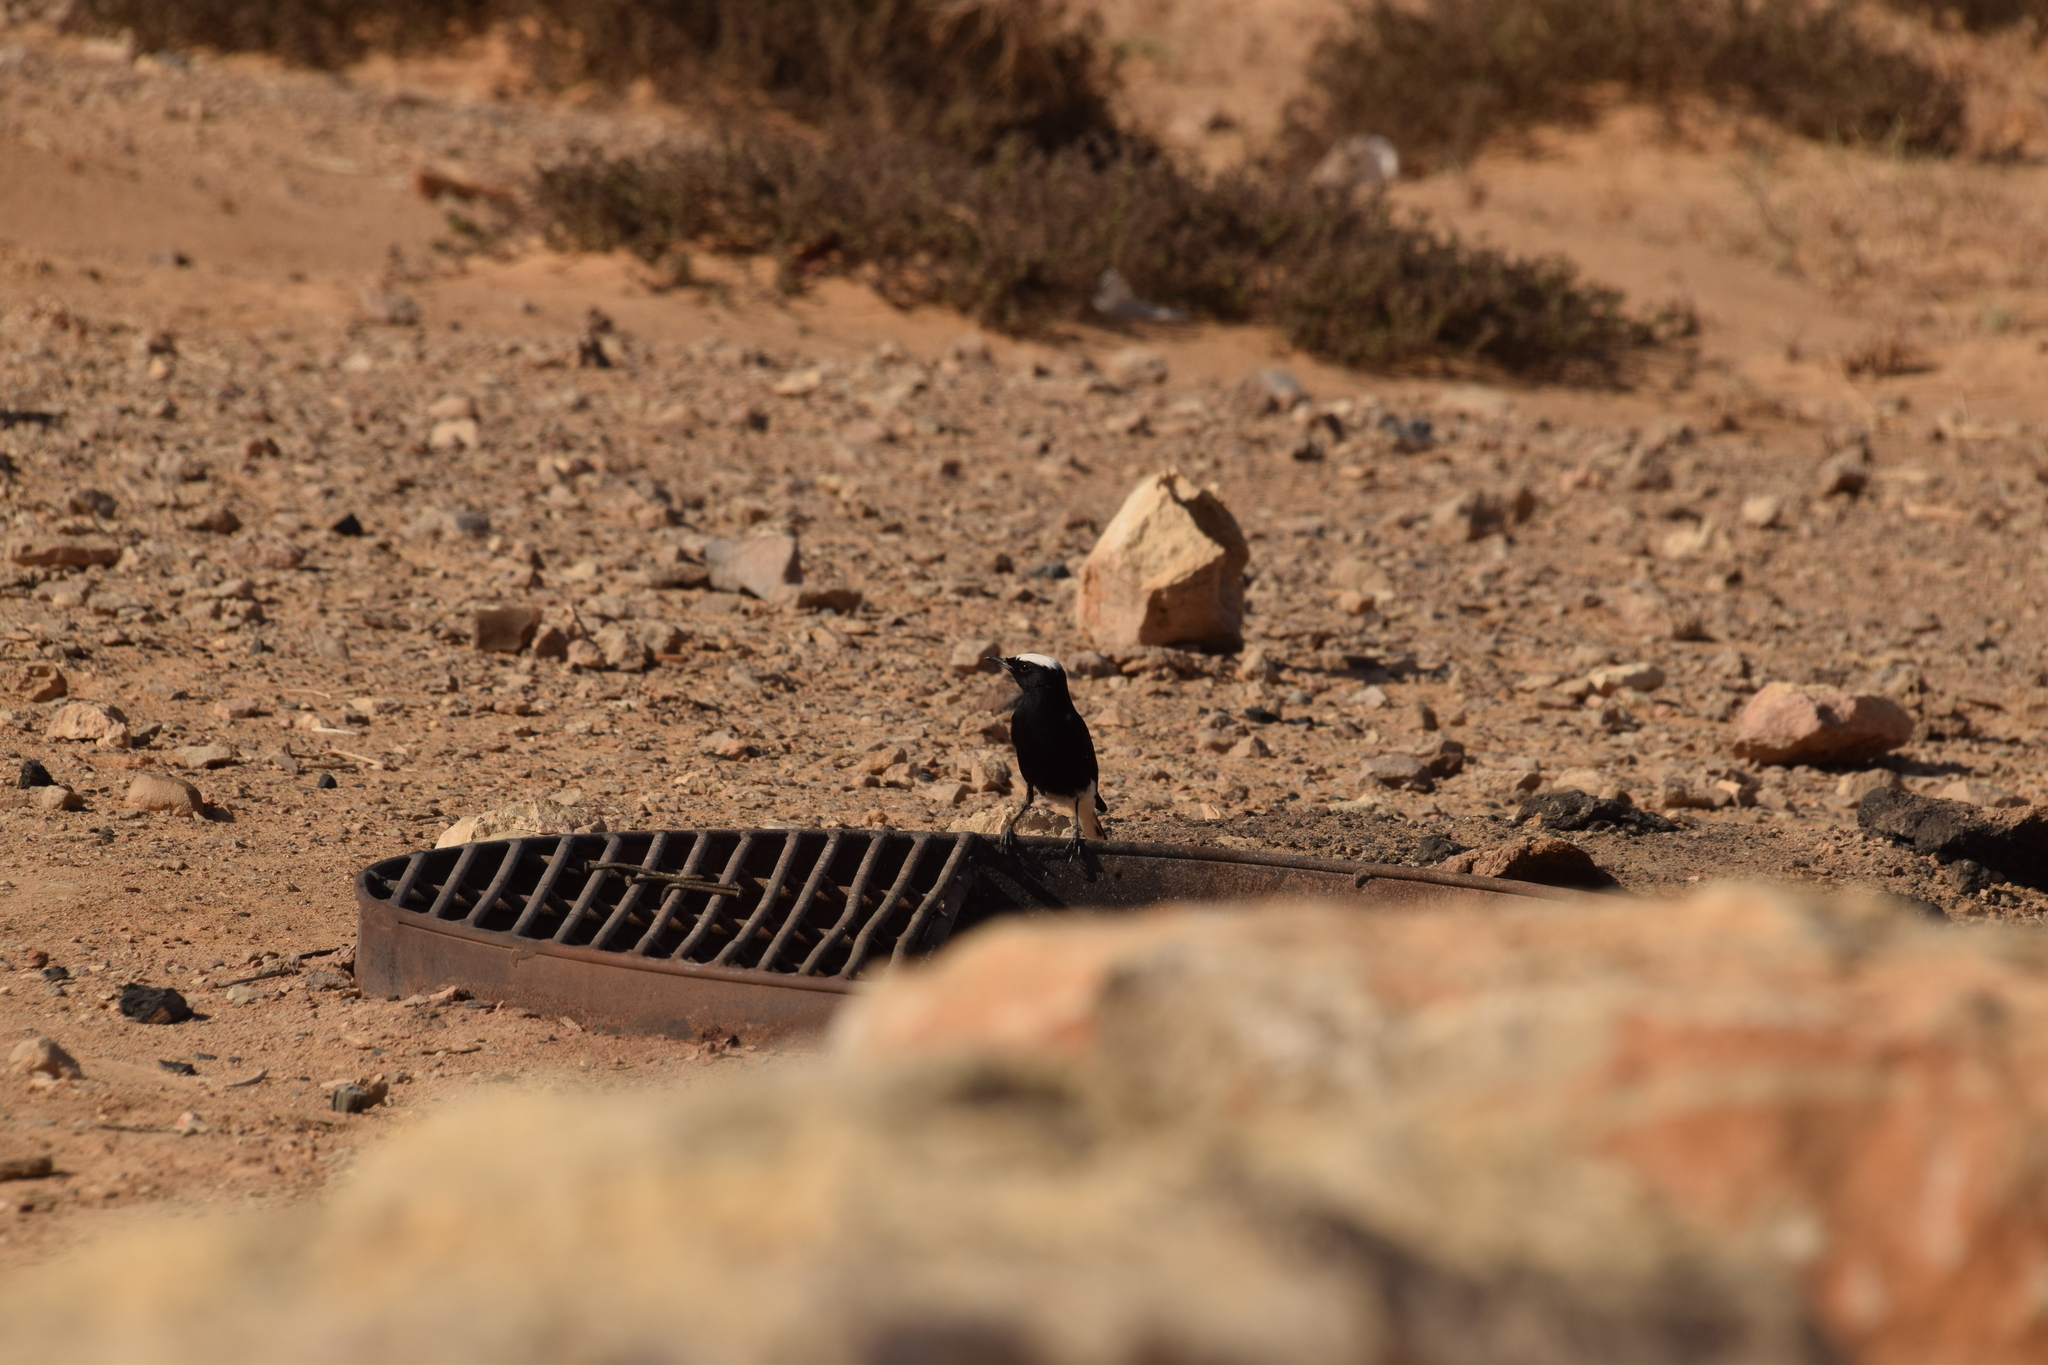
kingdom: Animalia
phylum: Chordata
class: Aves
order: Passeriformes
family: Muscicapidae
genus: Oenanthe
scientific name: Oenanthe leucopyga
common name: White-crowned wheatear
